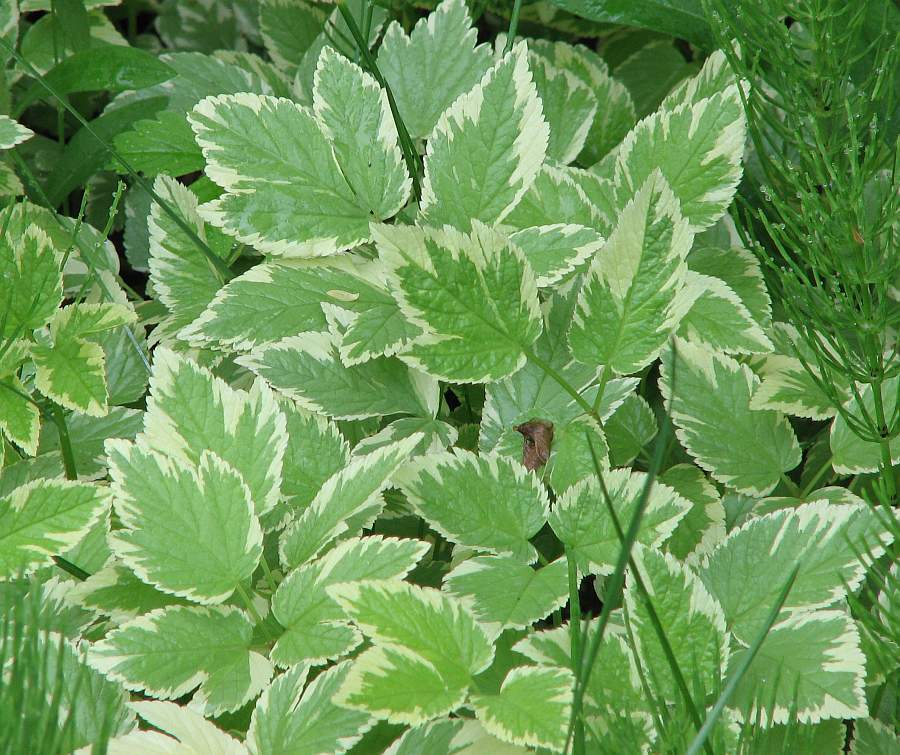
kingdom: Plantae
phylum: Tracheophyta
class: Magnoliopsida
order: Apiales
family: Apiaceae
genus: Aegopodium
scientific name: Aegopodium podagraria
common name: Ground-elder
